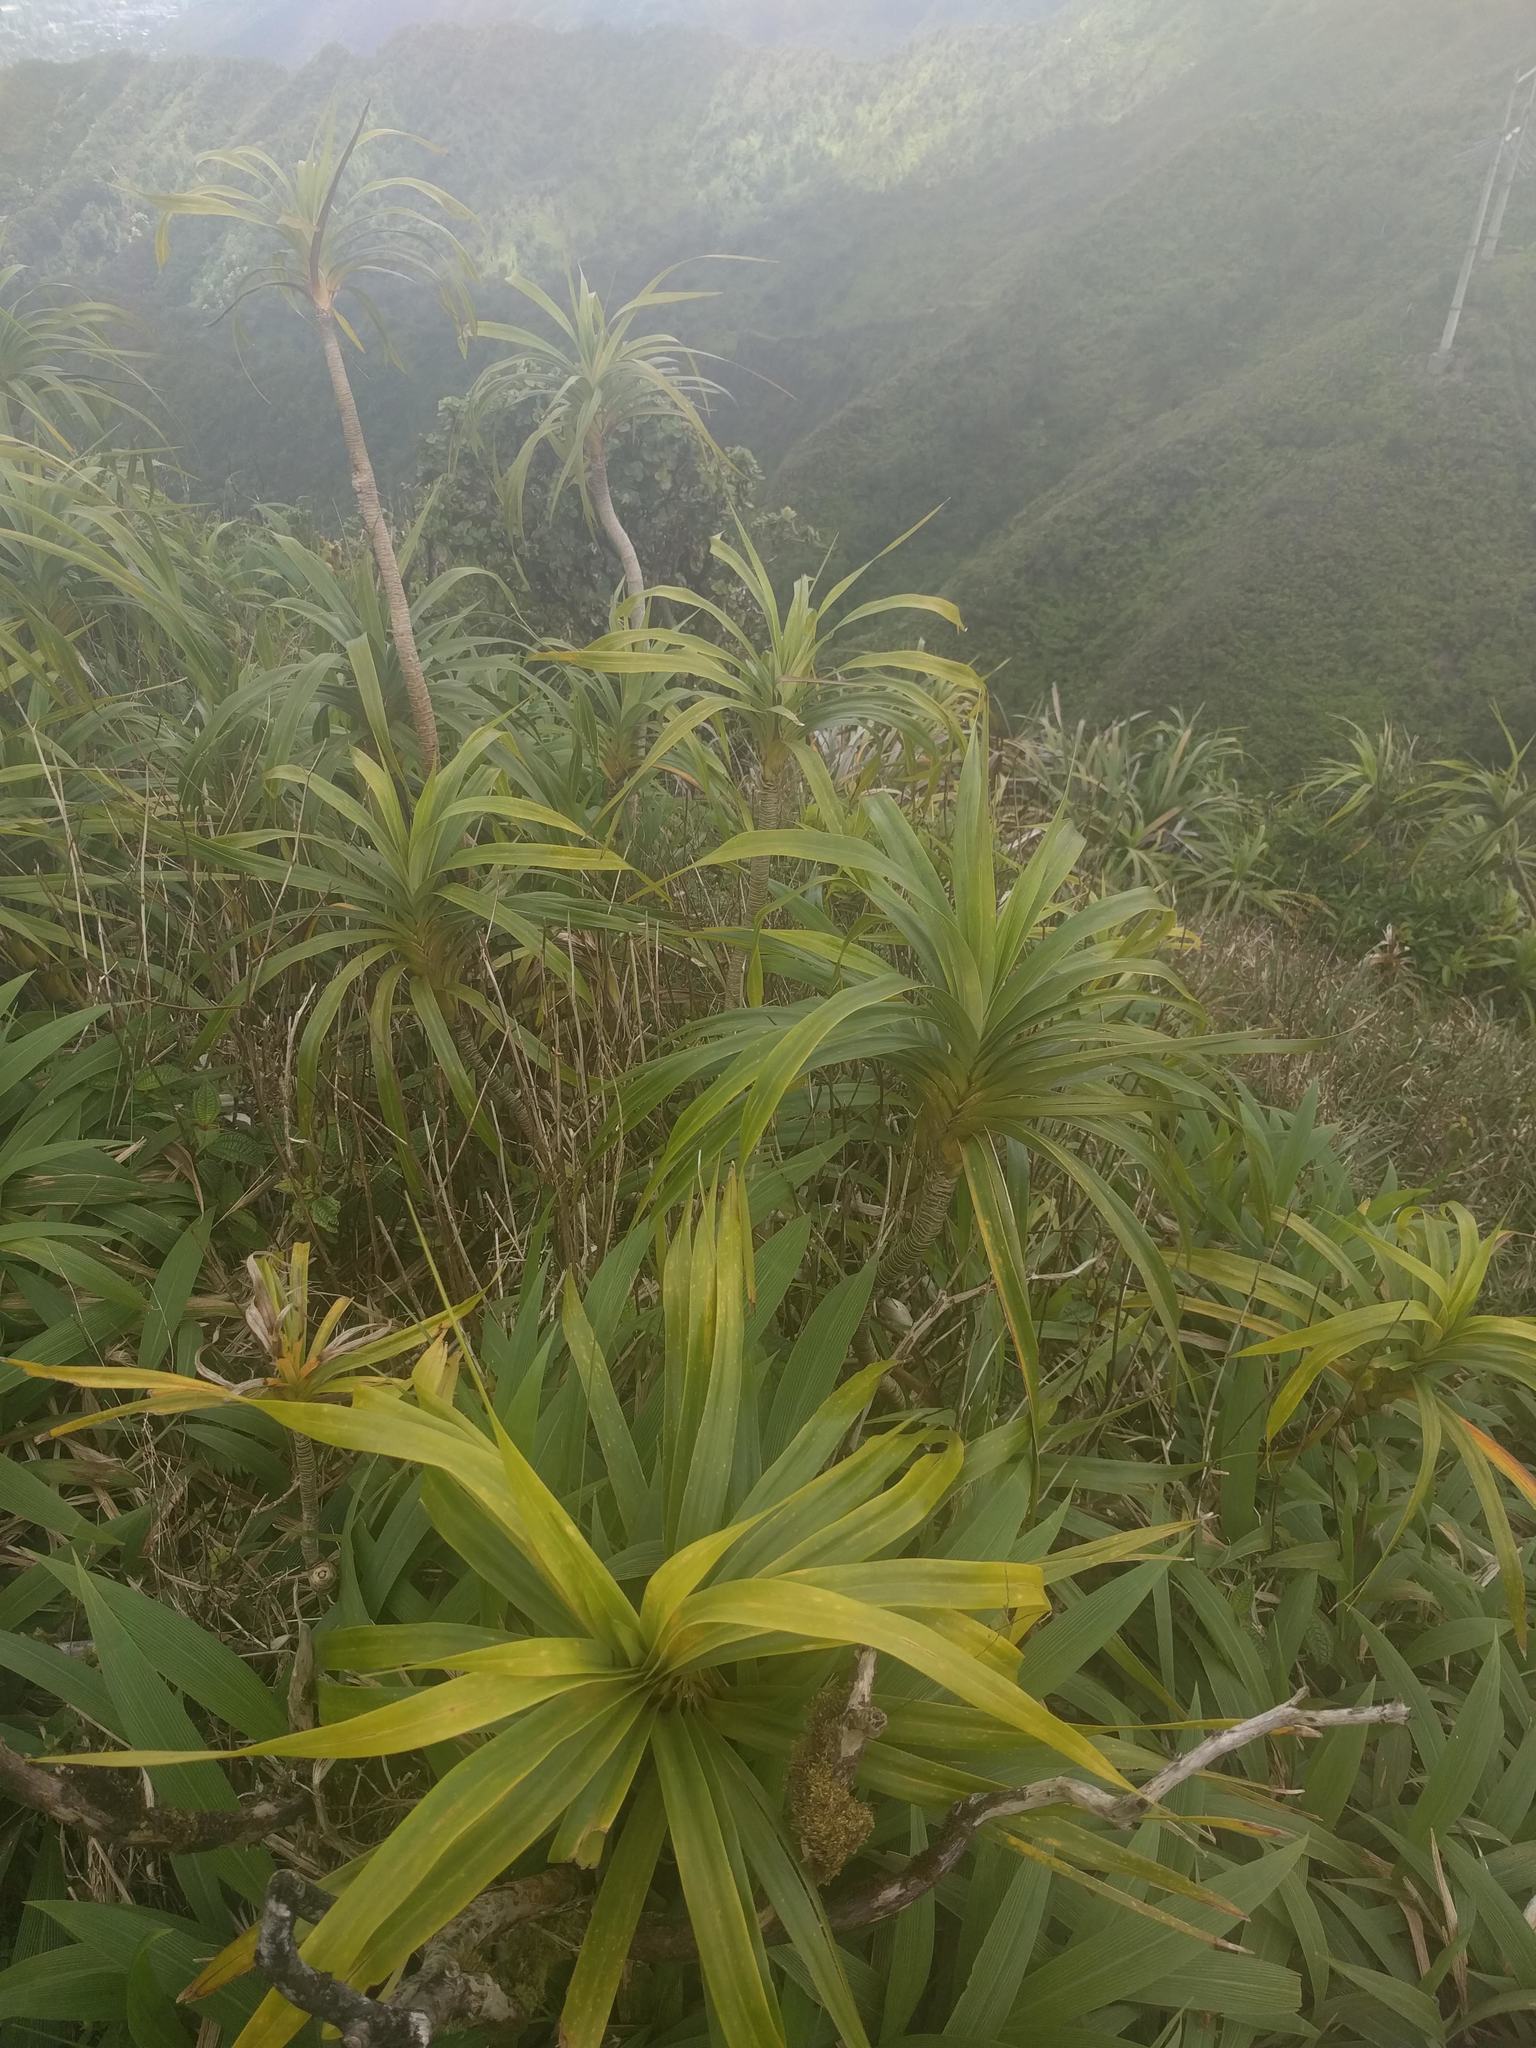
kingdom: Plantae
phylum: Tracheophyta
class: Liliopsida
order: Pandanales
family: Pandanaceae
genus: Freycinetia
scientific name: Freycinetia arborea
